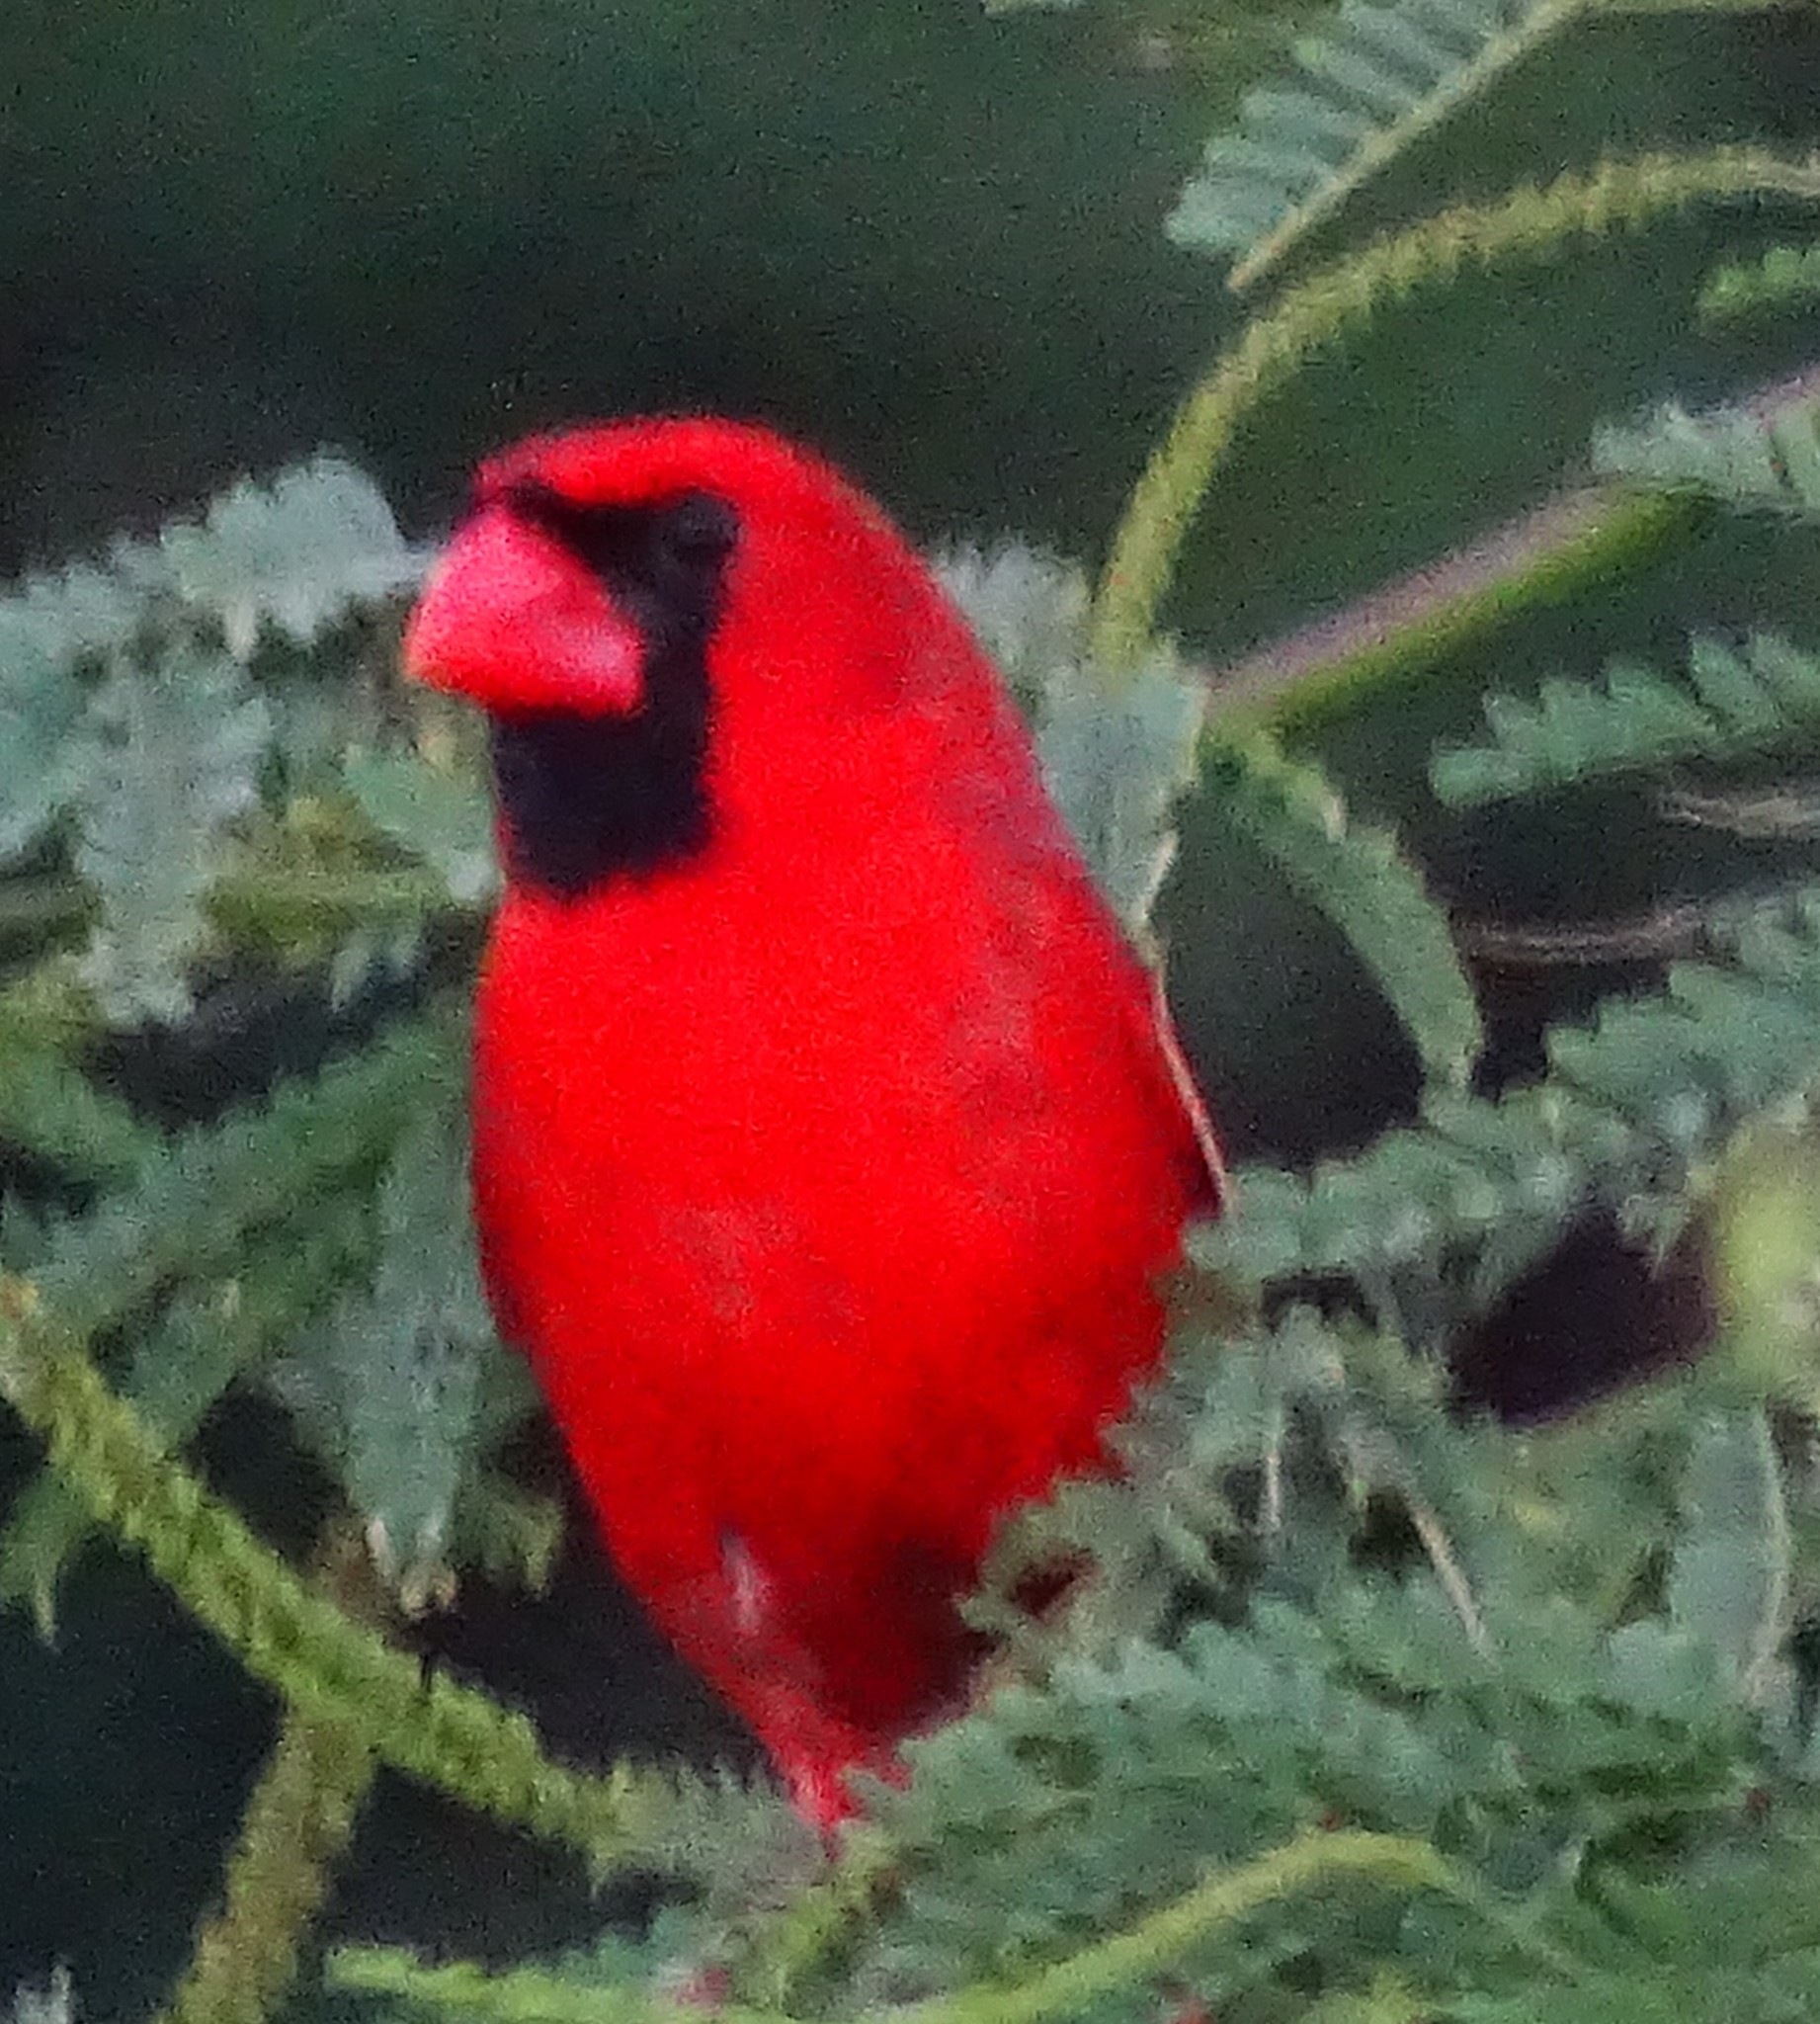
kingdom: Animalia
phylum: Chordata
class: Aves
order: Passeriformes
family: Cardinalidae
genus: Cardinalis
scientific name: Cardinalis cardinalis
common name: Northern cardinal
